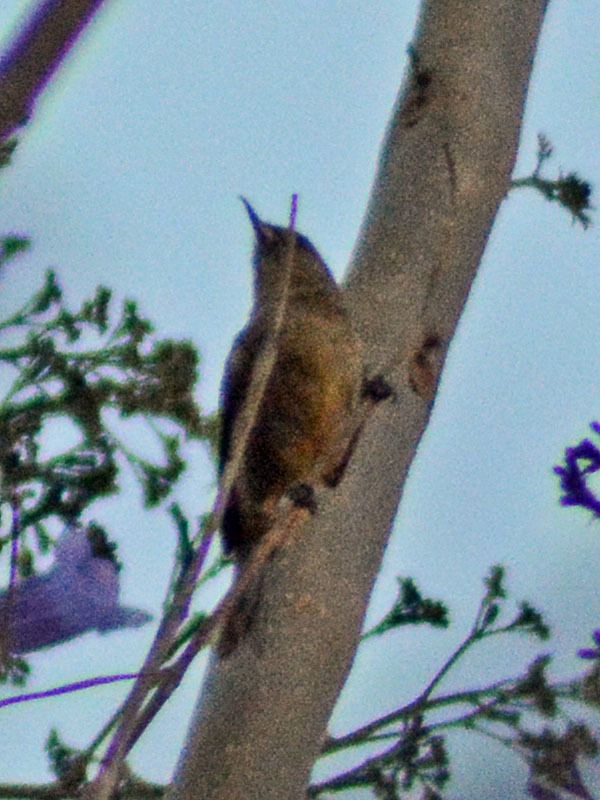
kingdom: Animalia
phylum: Chordata
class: Aves
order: Passeriformes
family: Thraupidae
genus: Diglossa
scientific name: Diglossa baritula
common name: Cinnamon-bellied flowerpiercer
